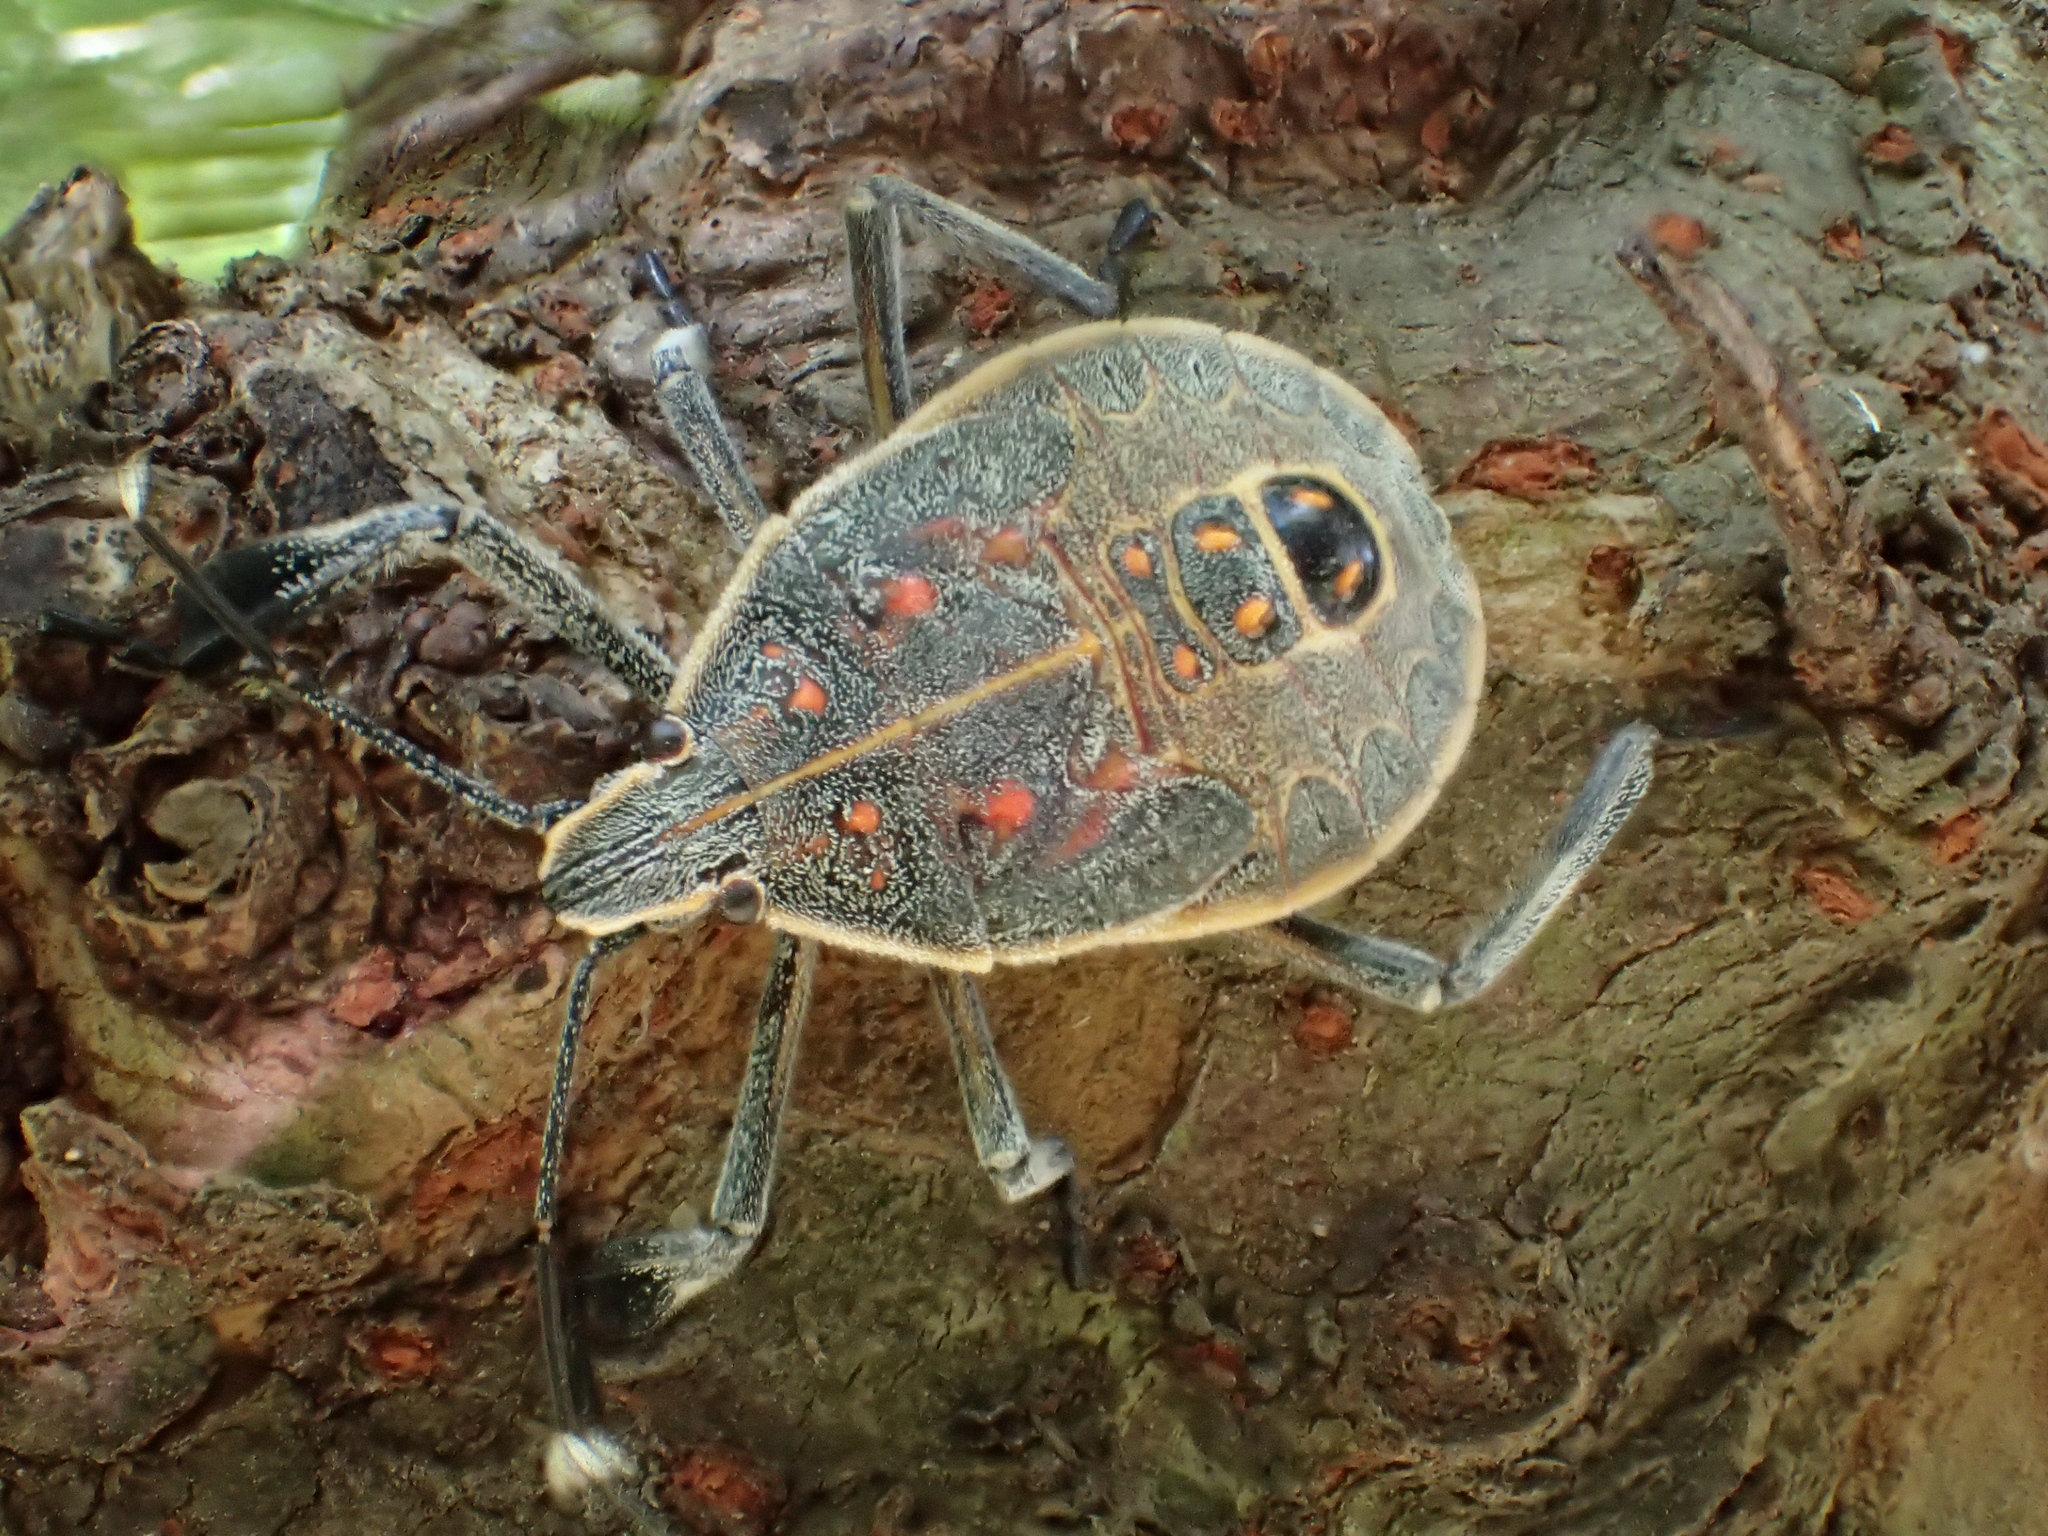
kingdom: Animalia
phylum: Arthropoda
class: Insecta
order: Hemiptera
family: Pentatomidae
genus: Erthesina
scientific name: Erthesina fullo
